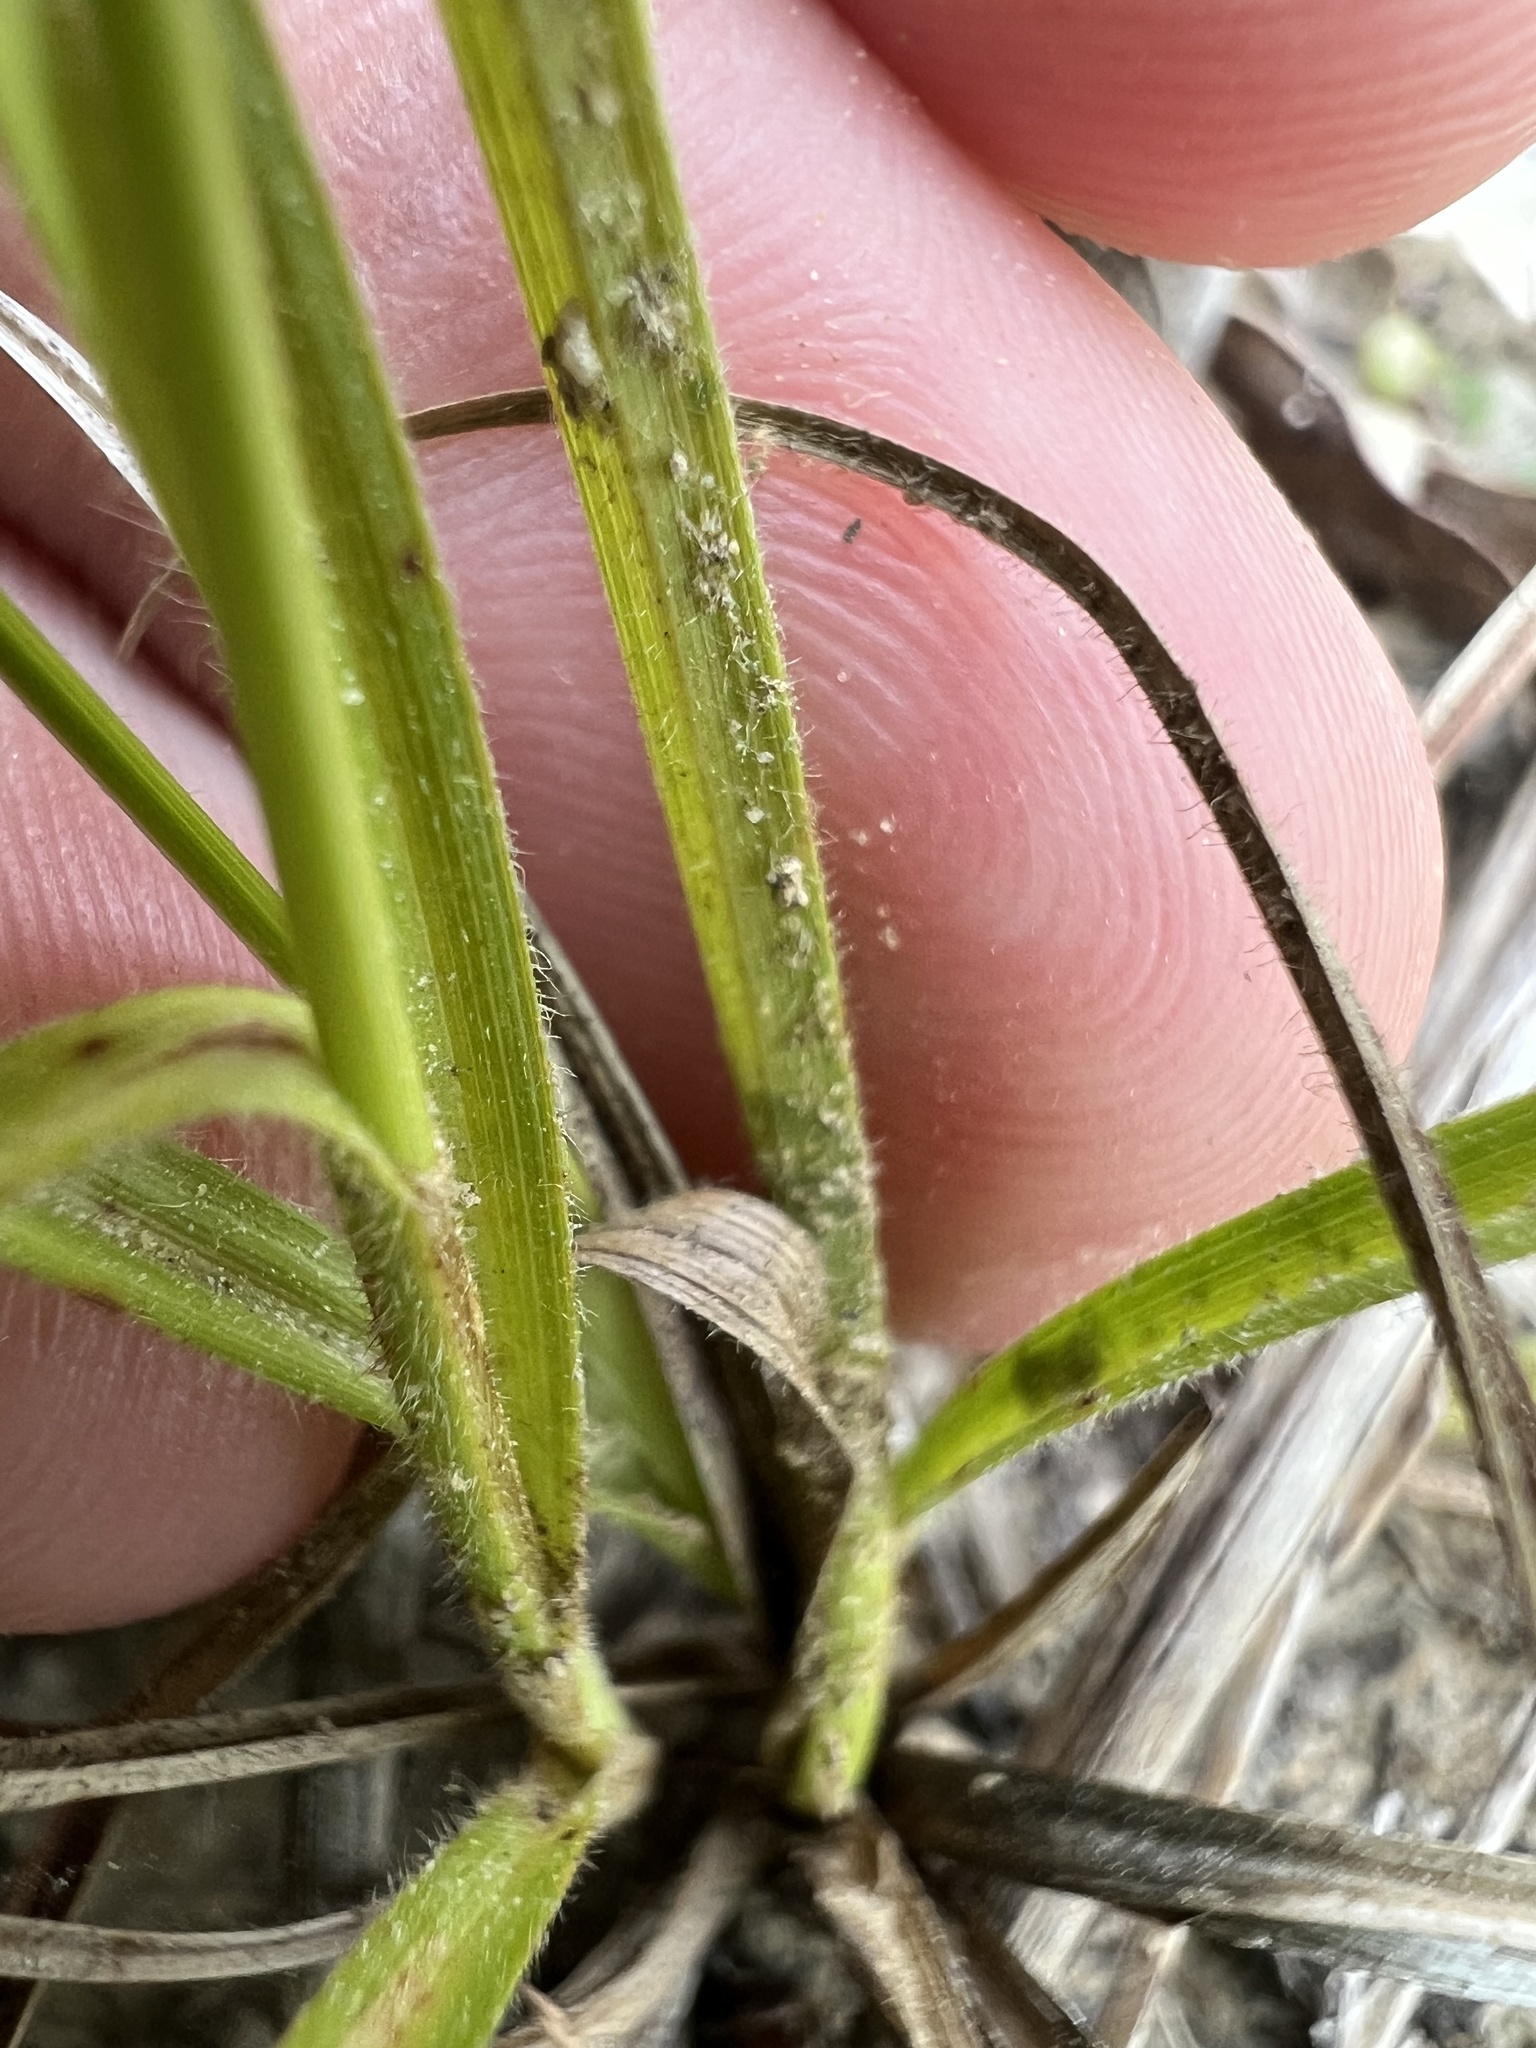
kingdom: Plantae
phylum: Tracheophyta
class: Liliopsida
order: Poales
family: Cyperaceae
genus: Carex
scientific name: Carex bushii
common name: Bush's sedge
